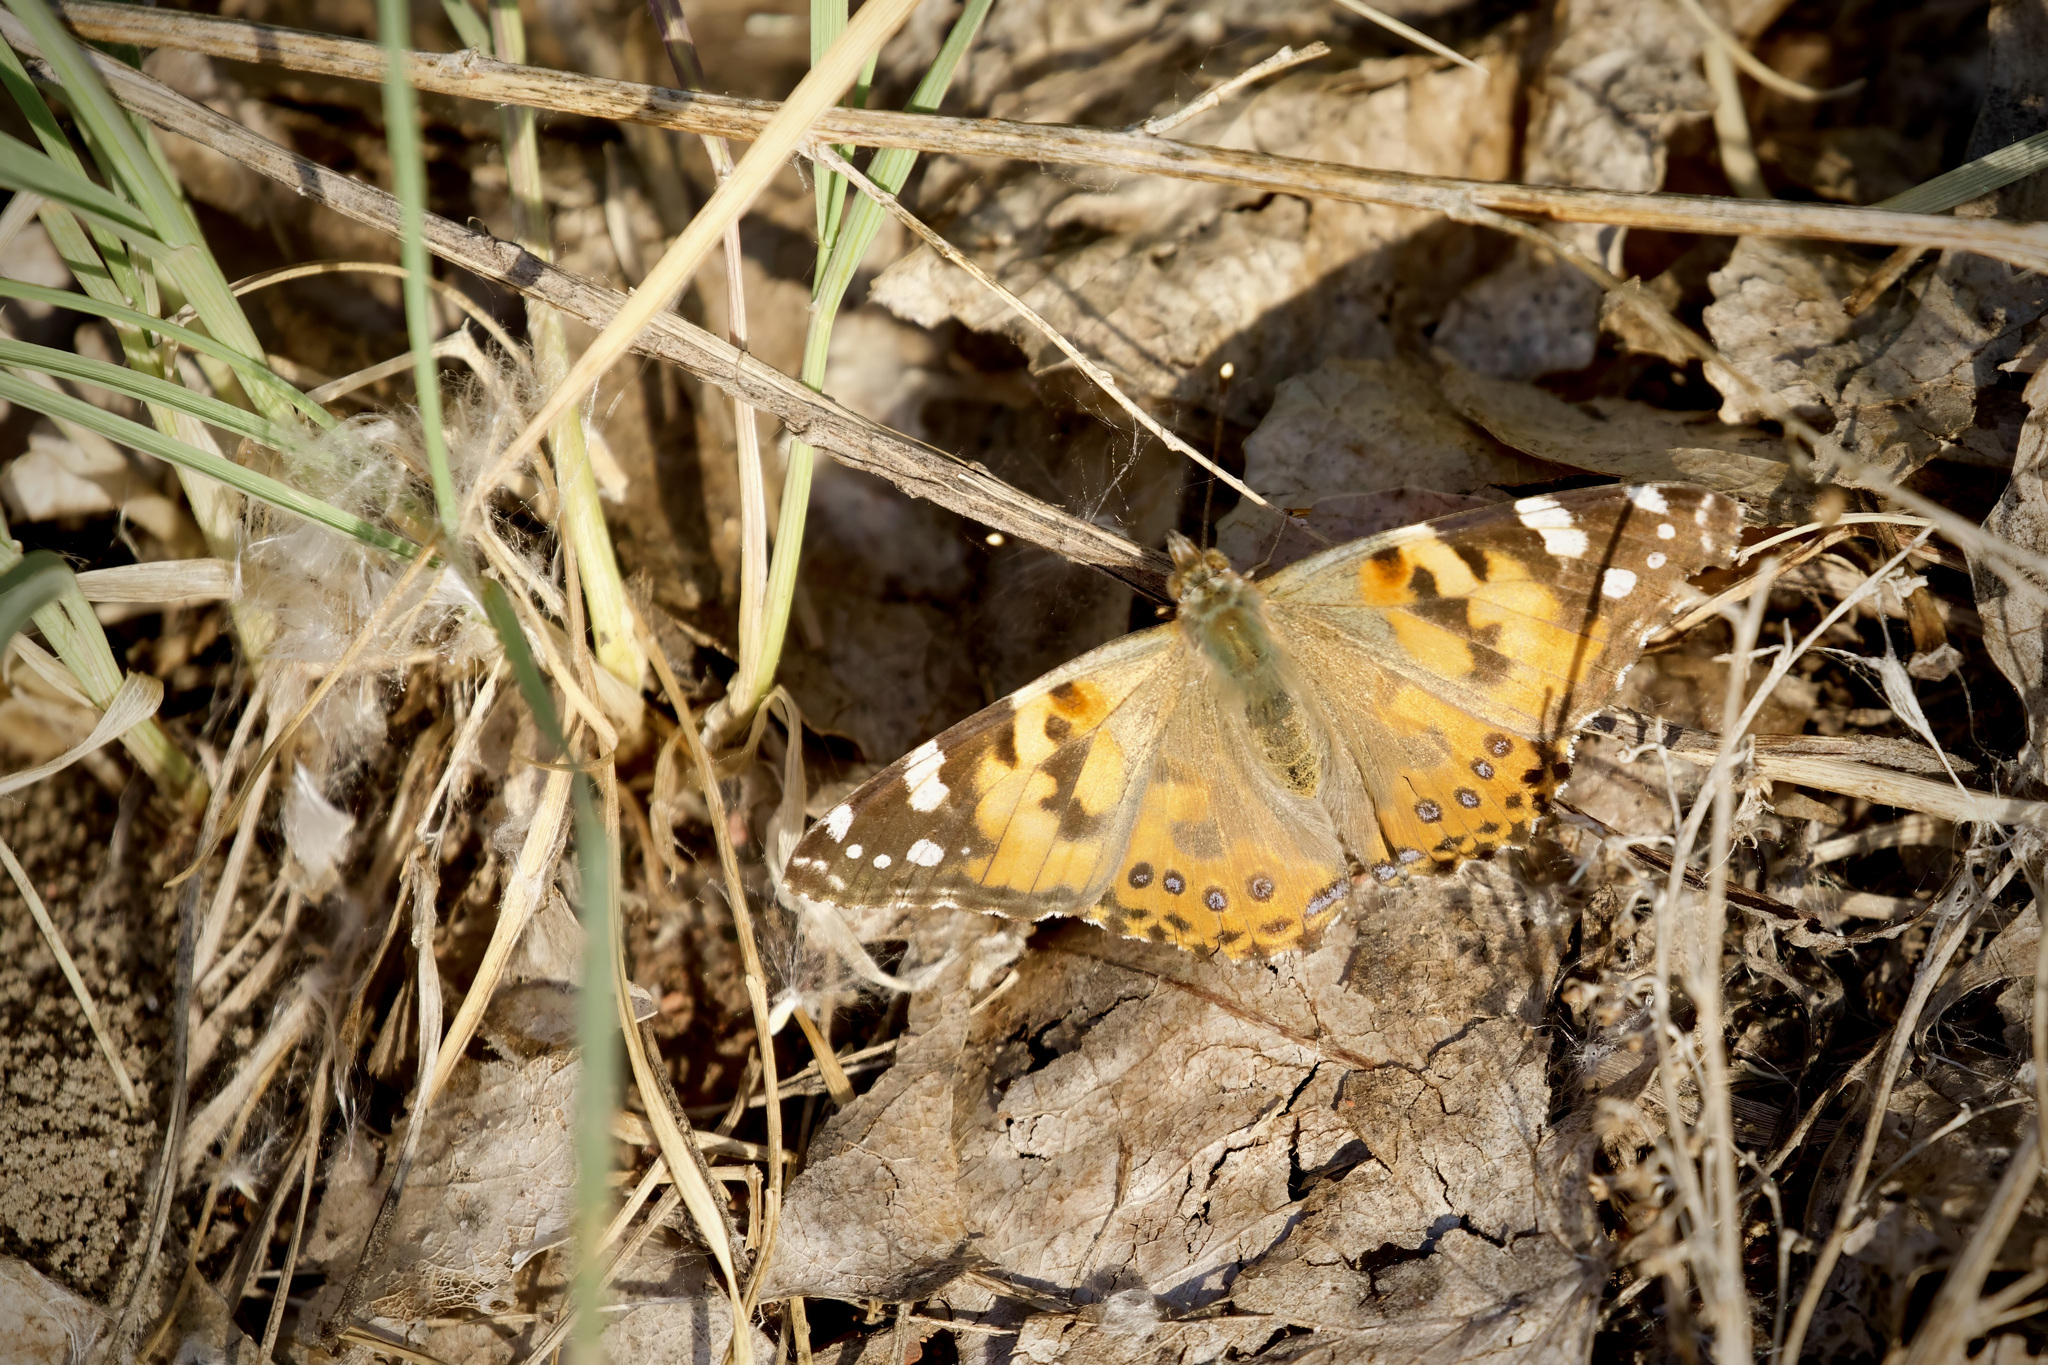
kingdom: Animalia
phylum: Arthropoda
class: Insecta
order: Lepidoptera
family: Nymphalidae
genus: Vanessa
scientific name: Vanessa cardui
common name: Painted lady
